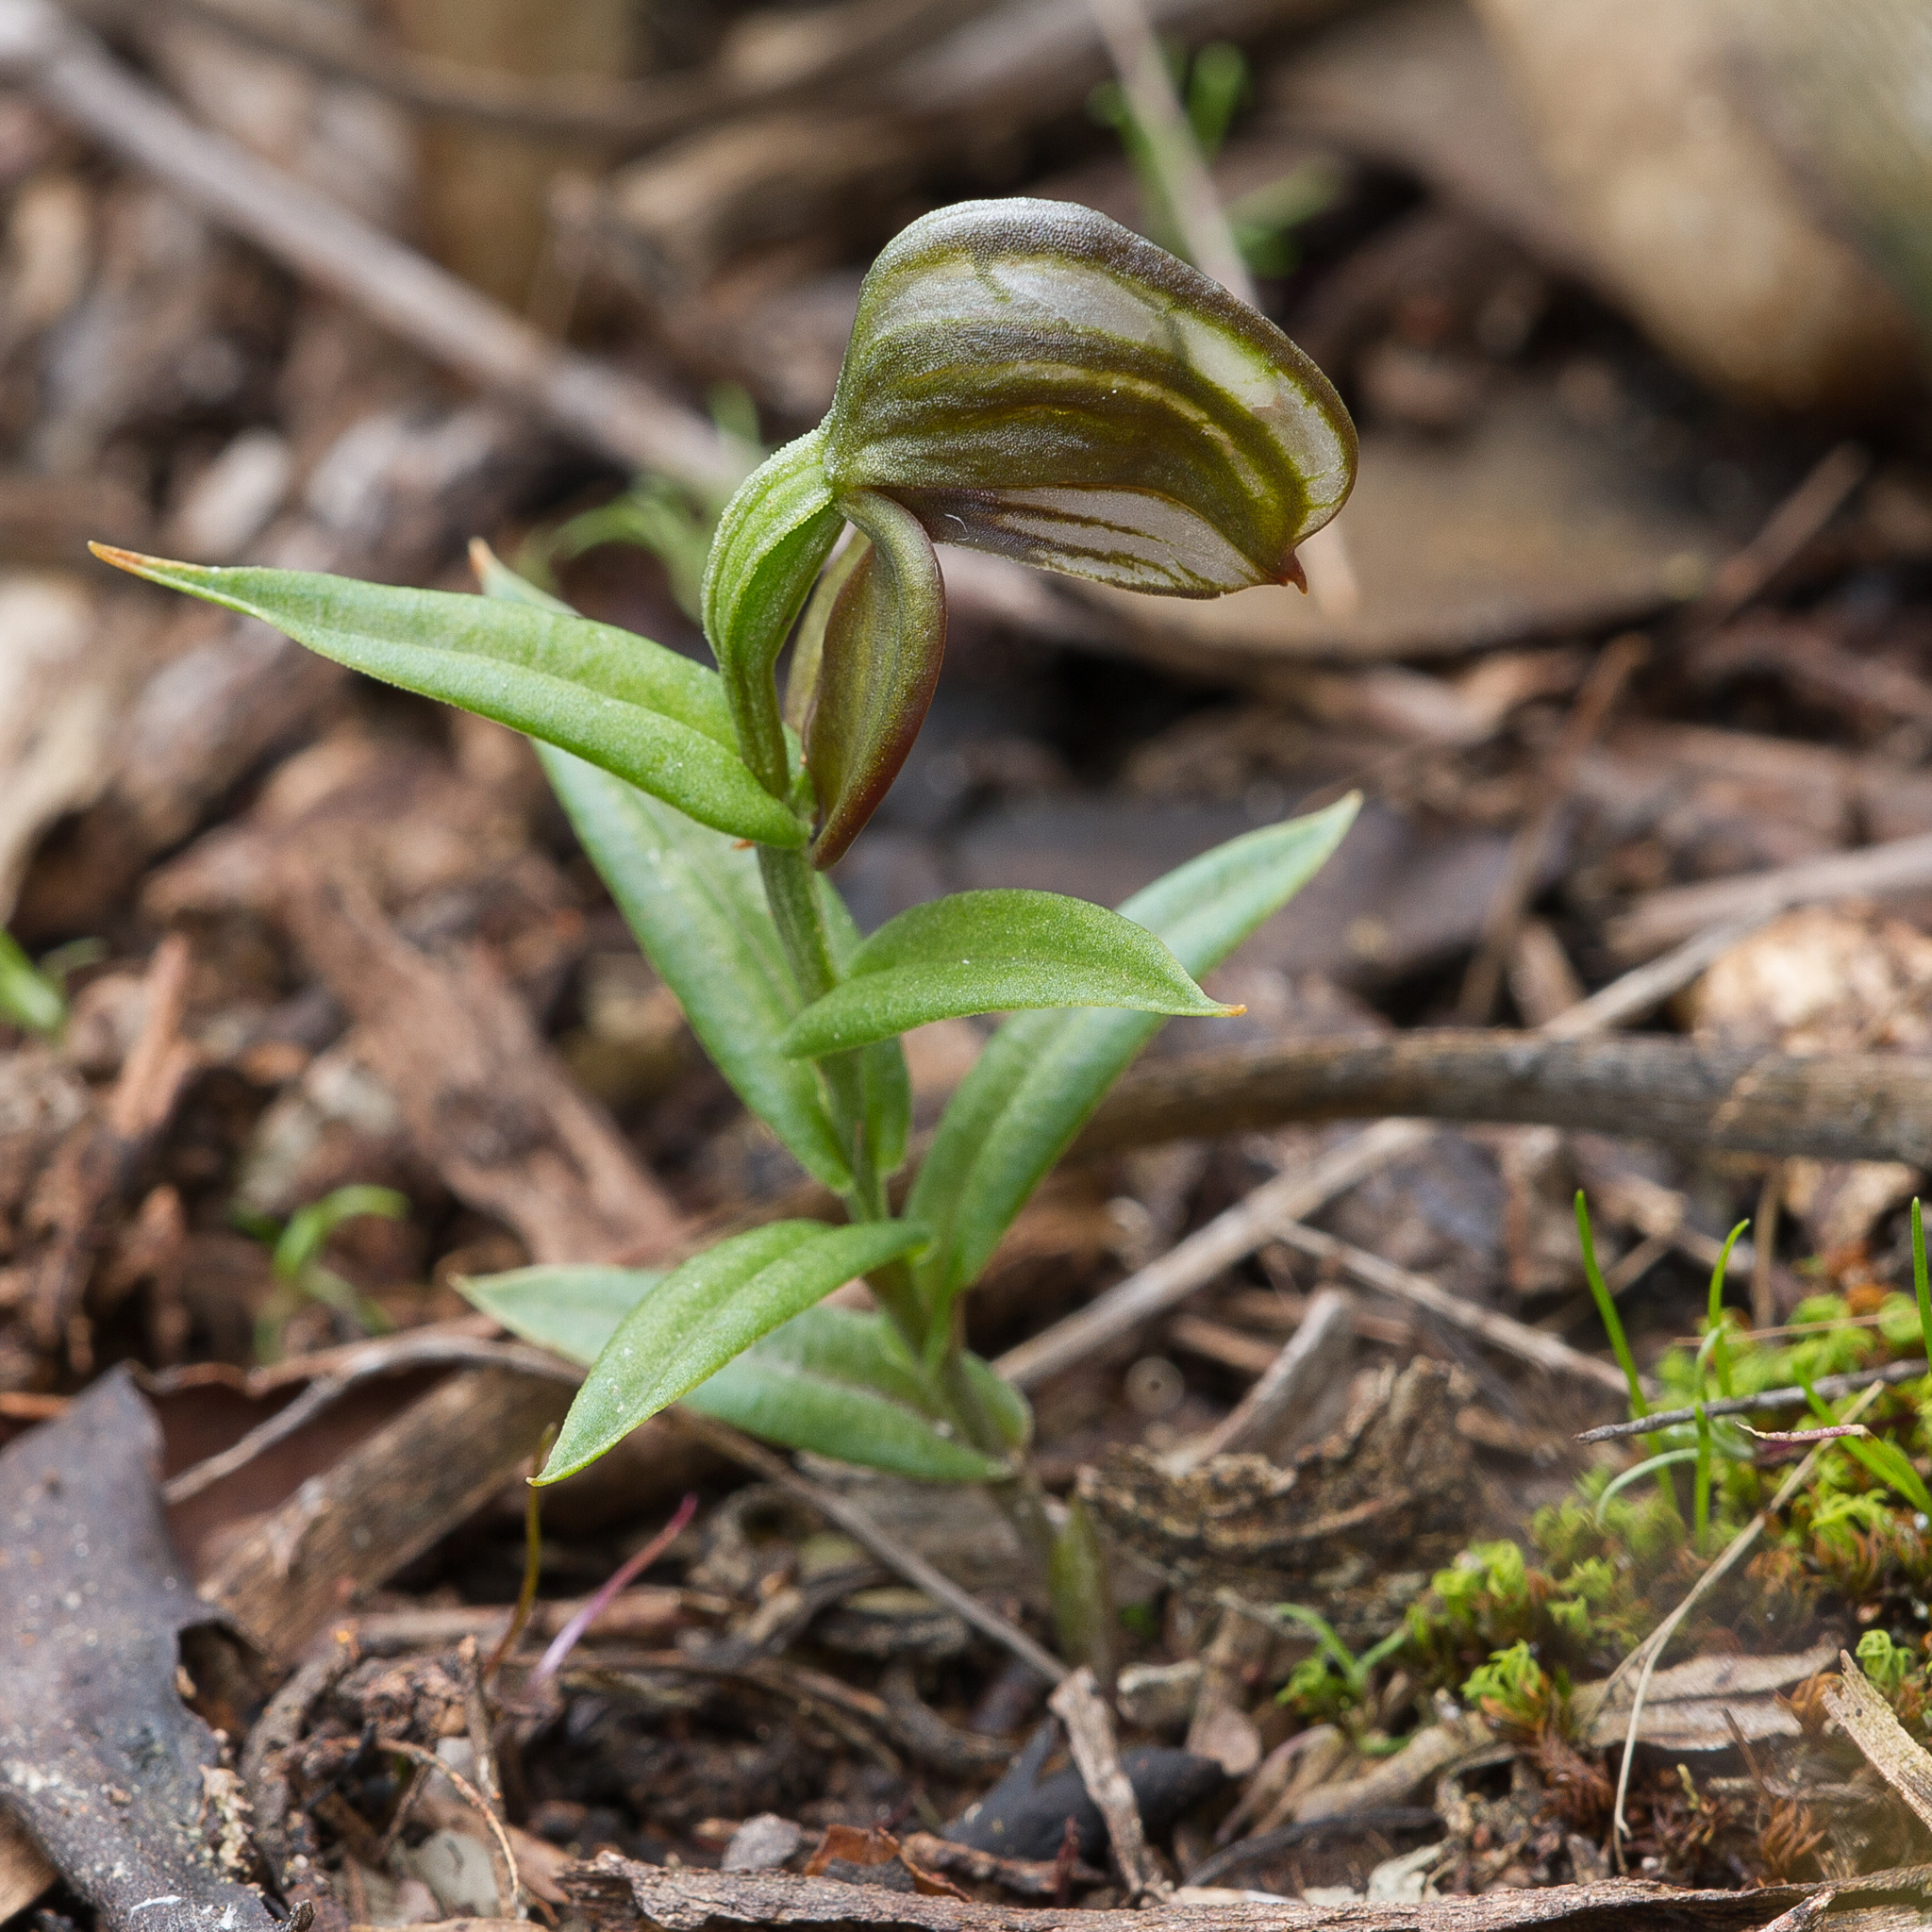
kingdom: Plantae
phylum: Tracheophyta
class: Liliopsida
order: Asparagales
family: Orchidaceae
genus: Pterostylis
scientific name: Pterostylis sanguinea
